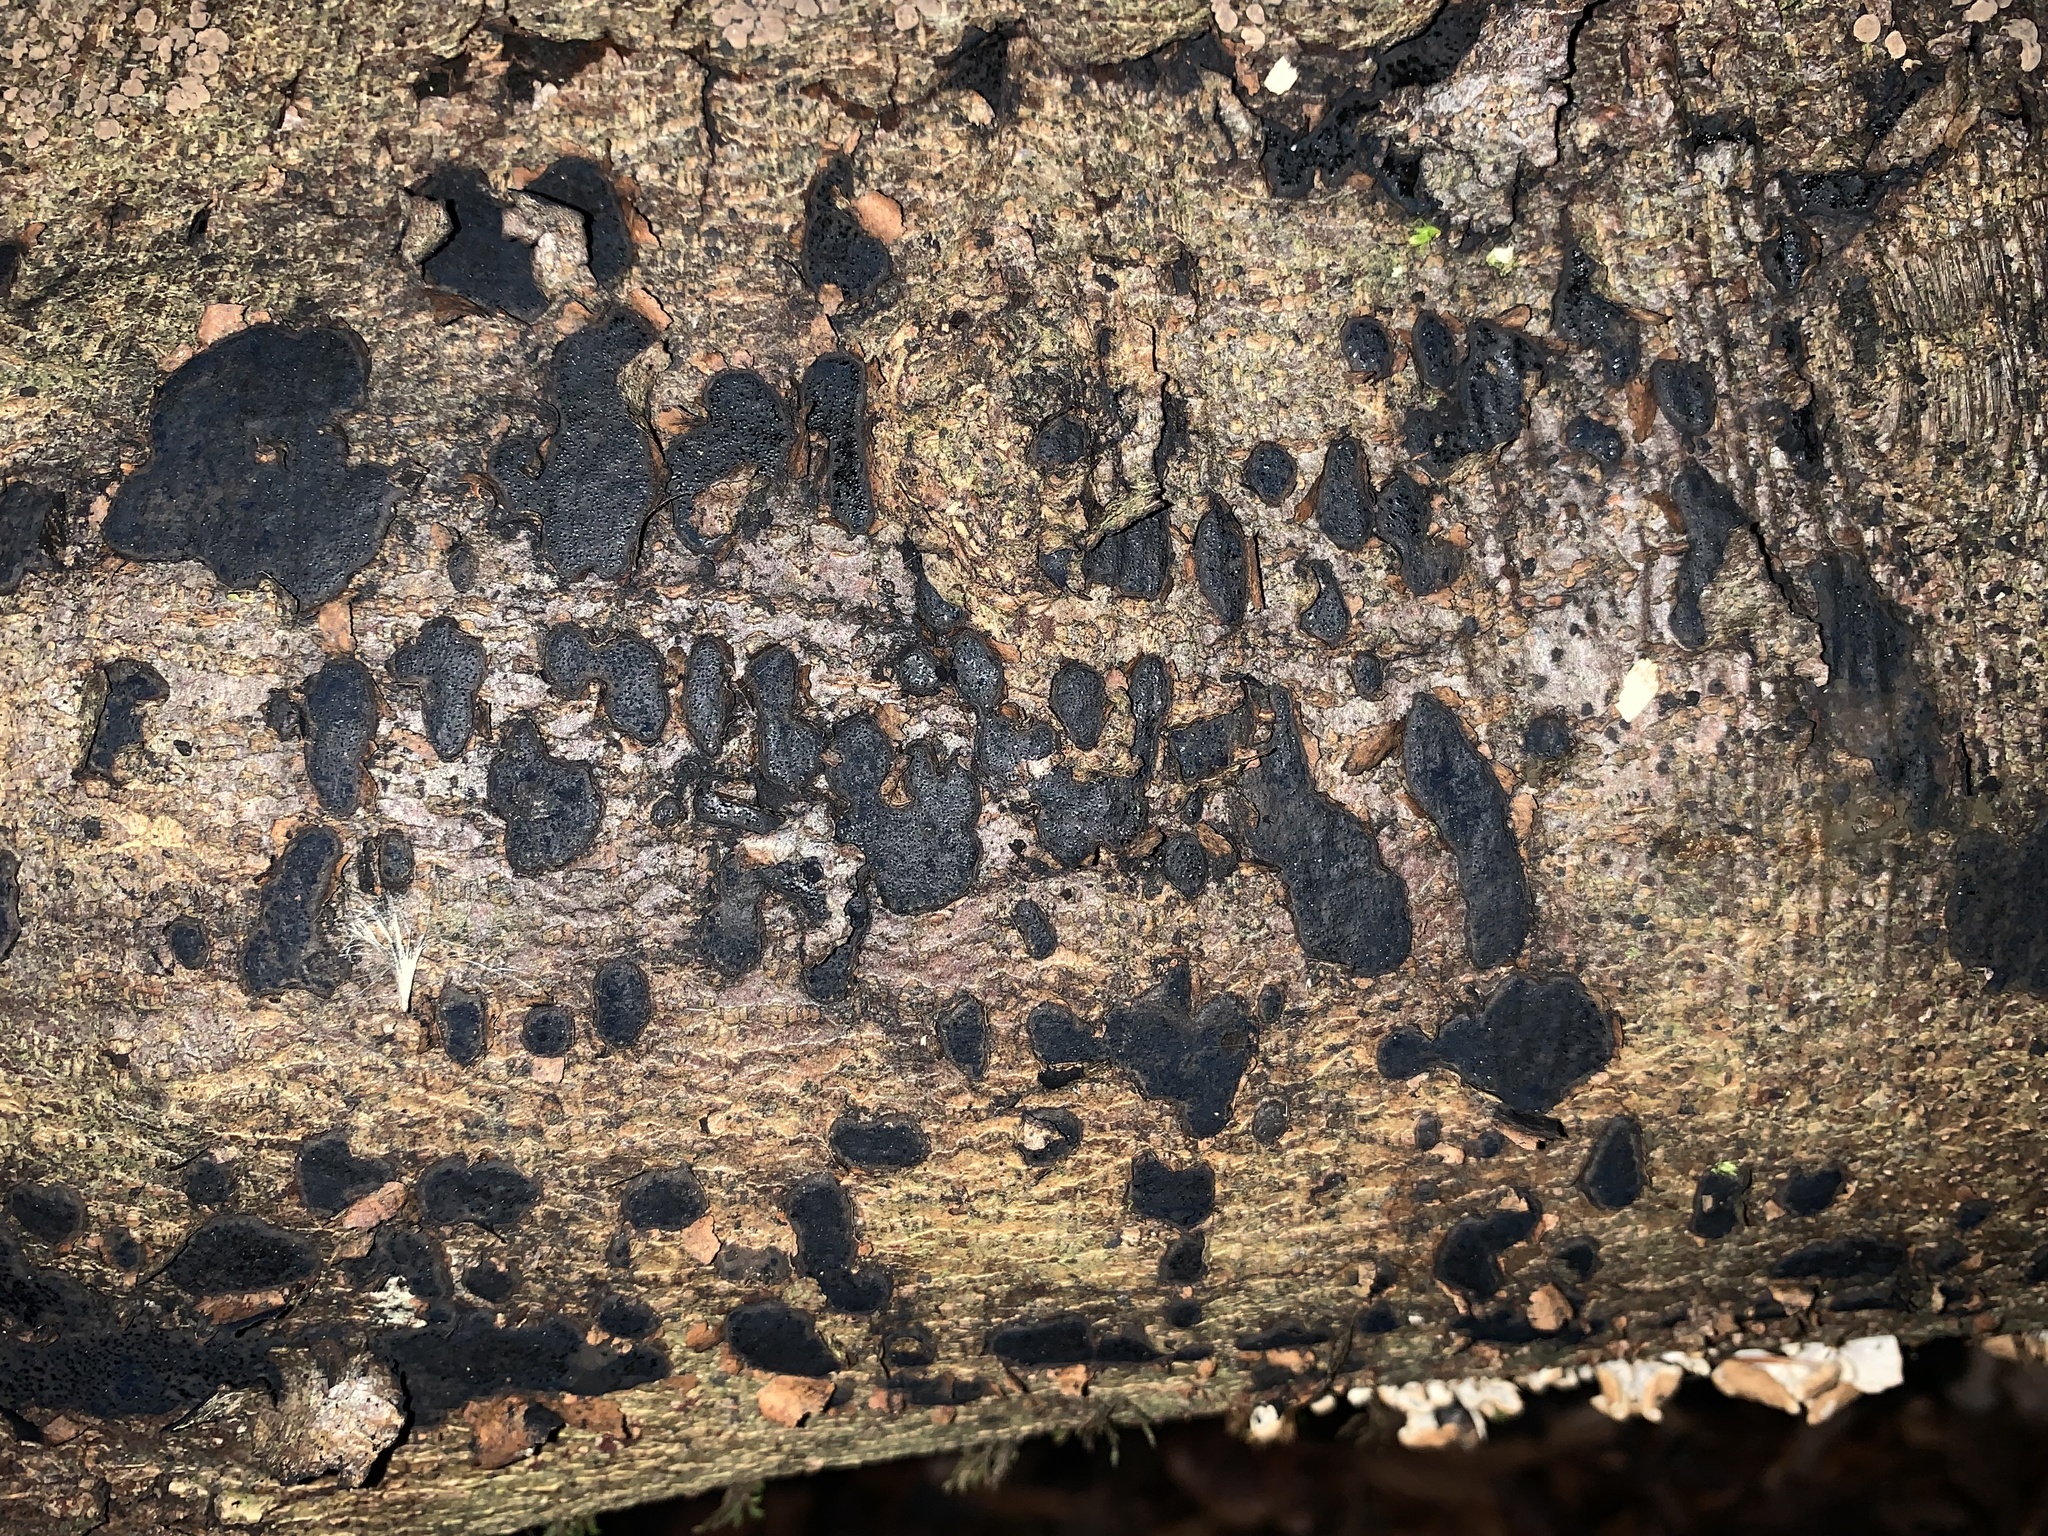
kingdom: Fungi
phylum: Ascomycota
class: Sordariomycetes
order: Xylariales
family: Graphostromataceae
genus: Biscogniauxia
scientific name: Biscogniauxia nummularia
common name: Beech tarcrust
